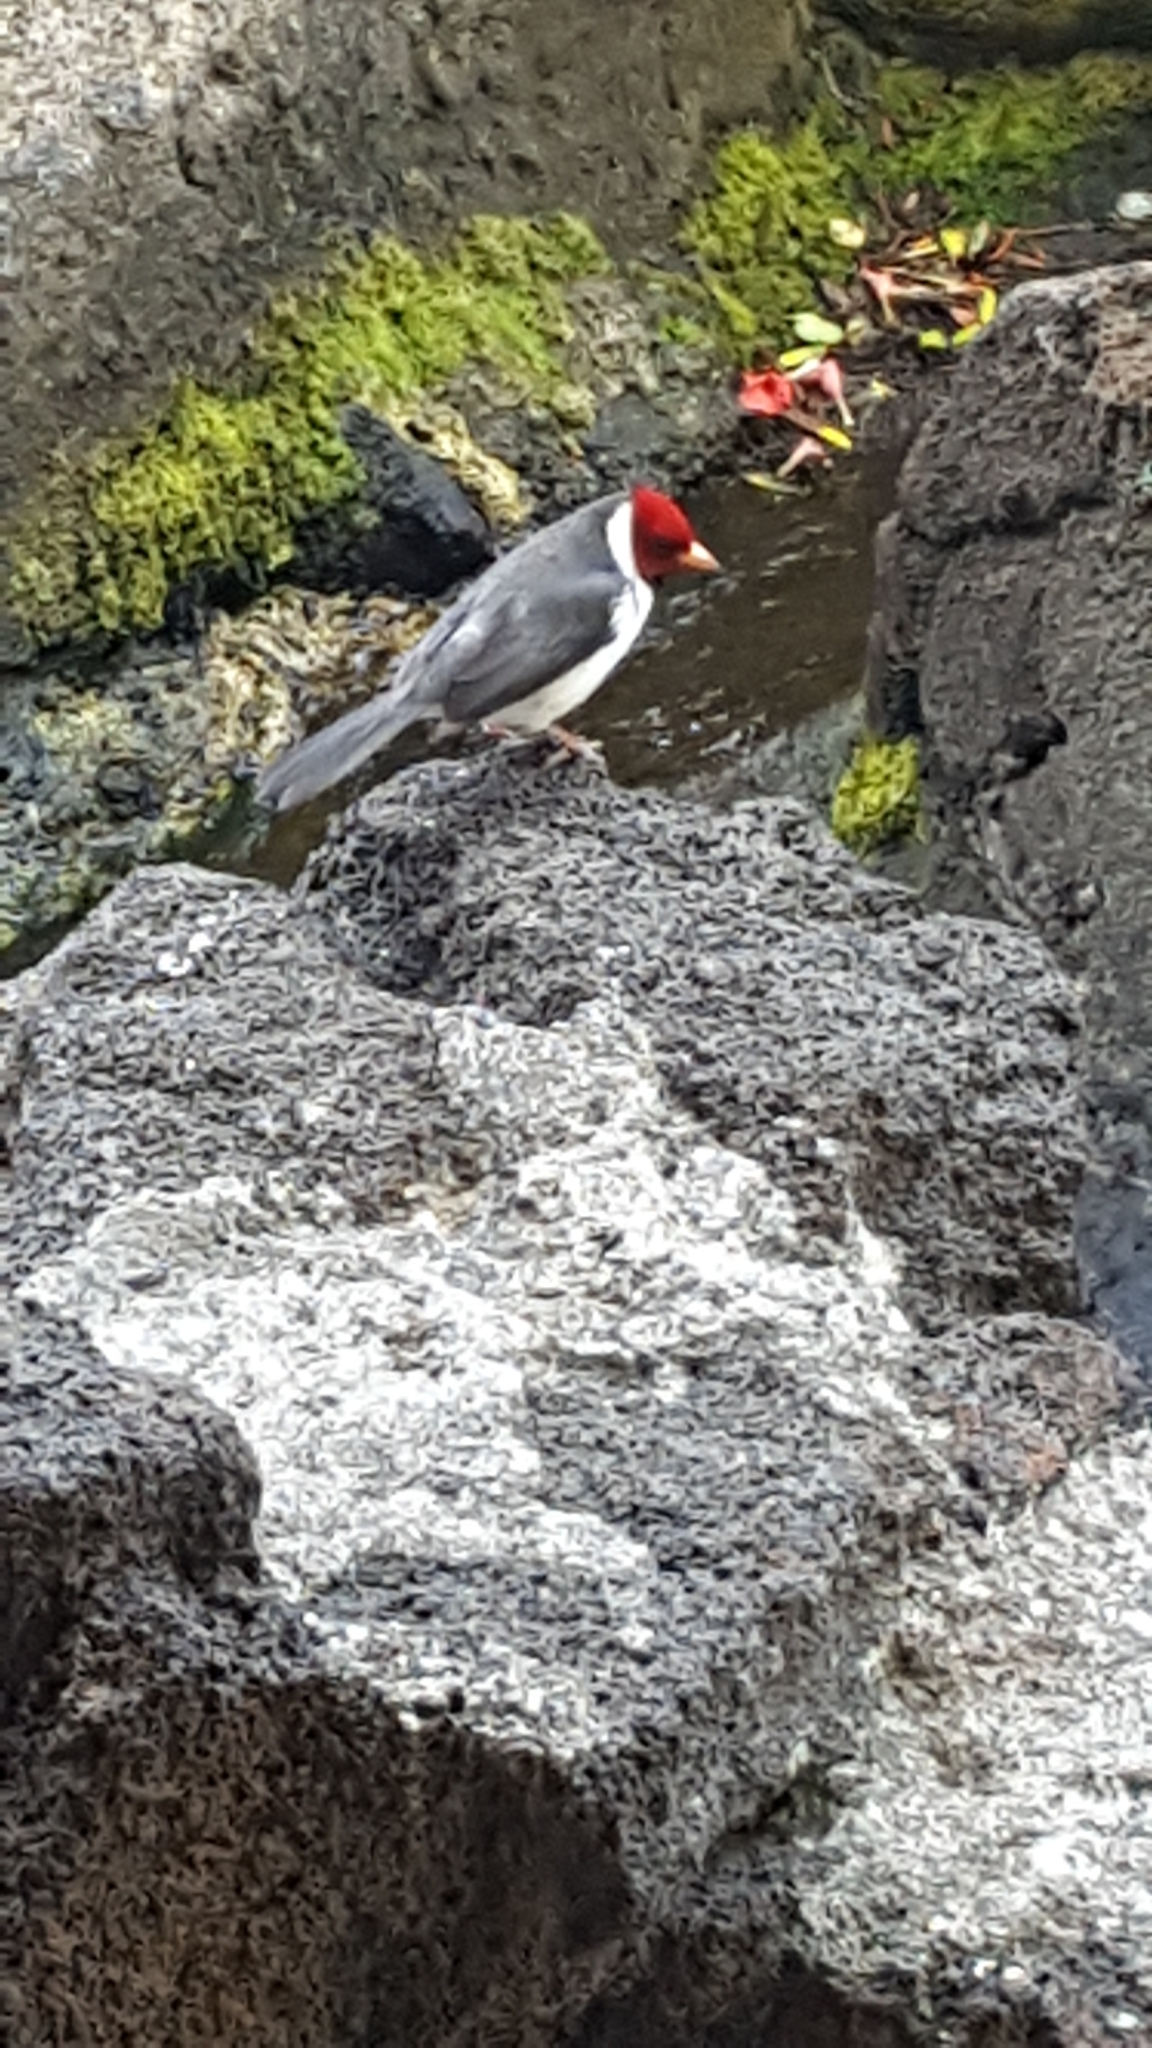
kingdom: Animalia
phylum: Chordata
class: Aves
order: Passeriformes
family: Thraupidae
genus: Paroaria
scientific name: Paroaria capitata
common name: Yellow-billed cardinal
